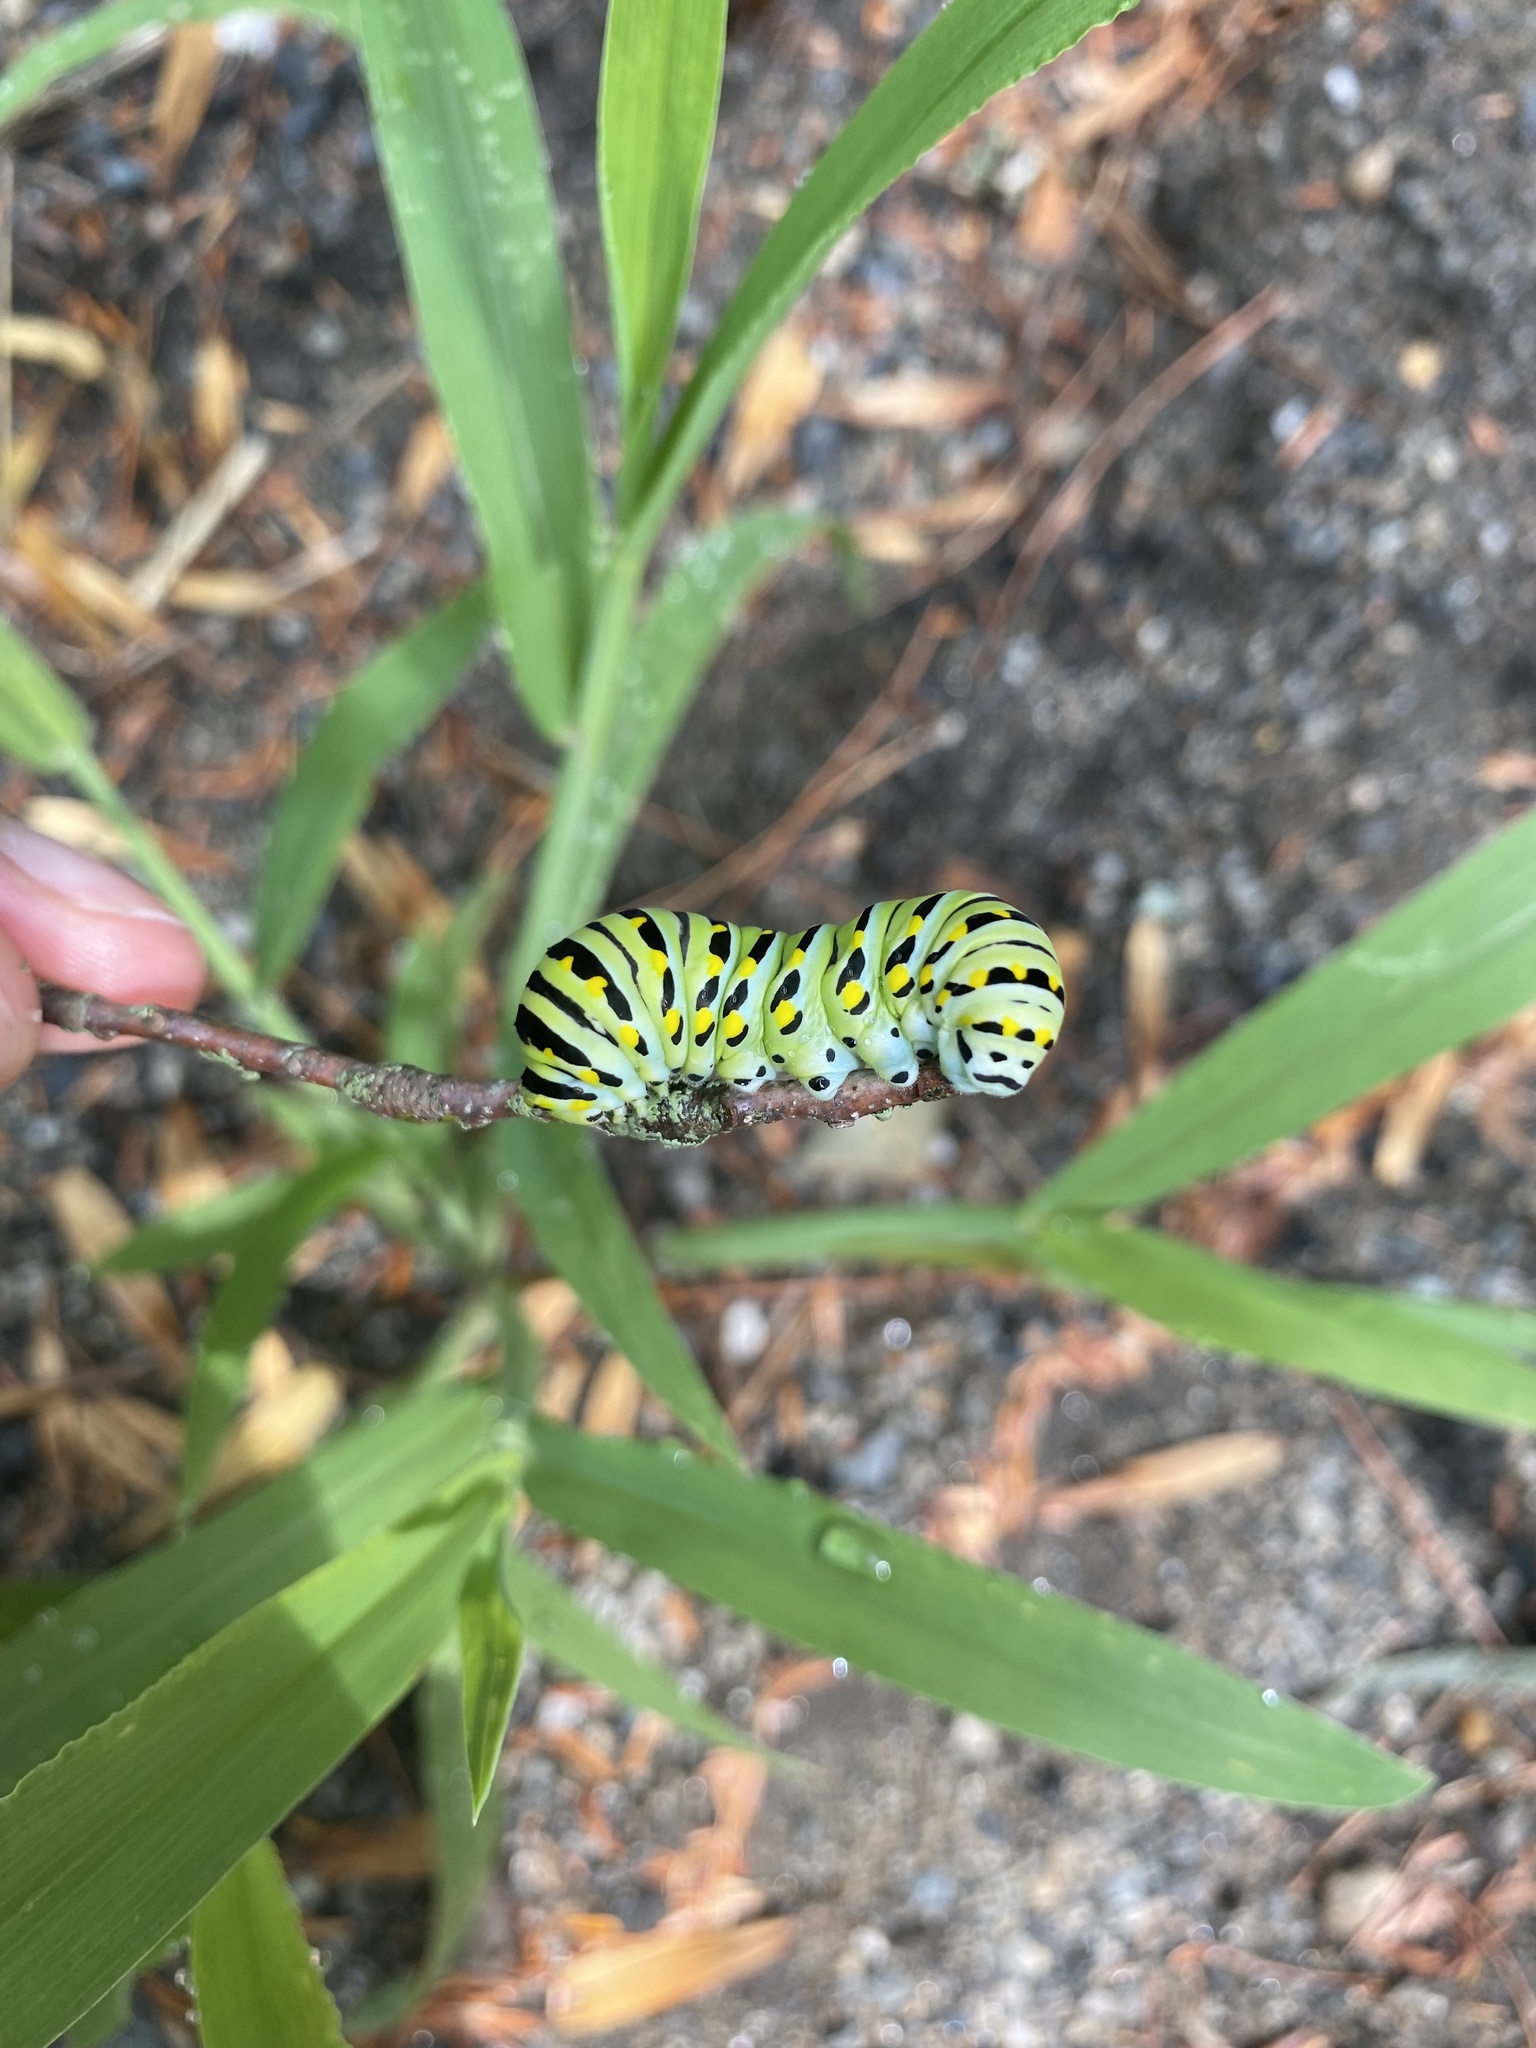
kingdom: Animalia
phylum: Arthropoda
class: Insecta
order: Lepidoptera
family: Papilionidae
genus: Papilio
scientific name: Papilio polyxenes
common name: Black swallowtail
